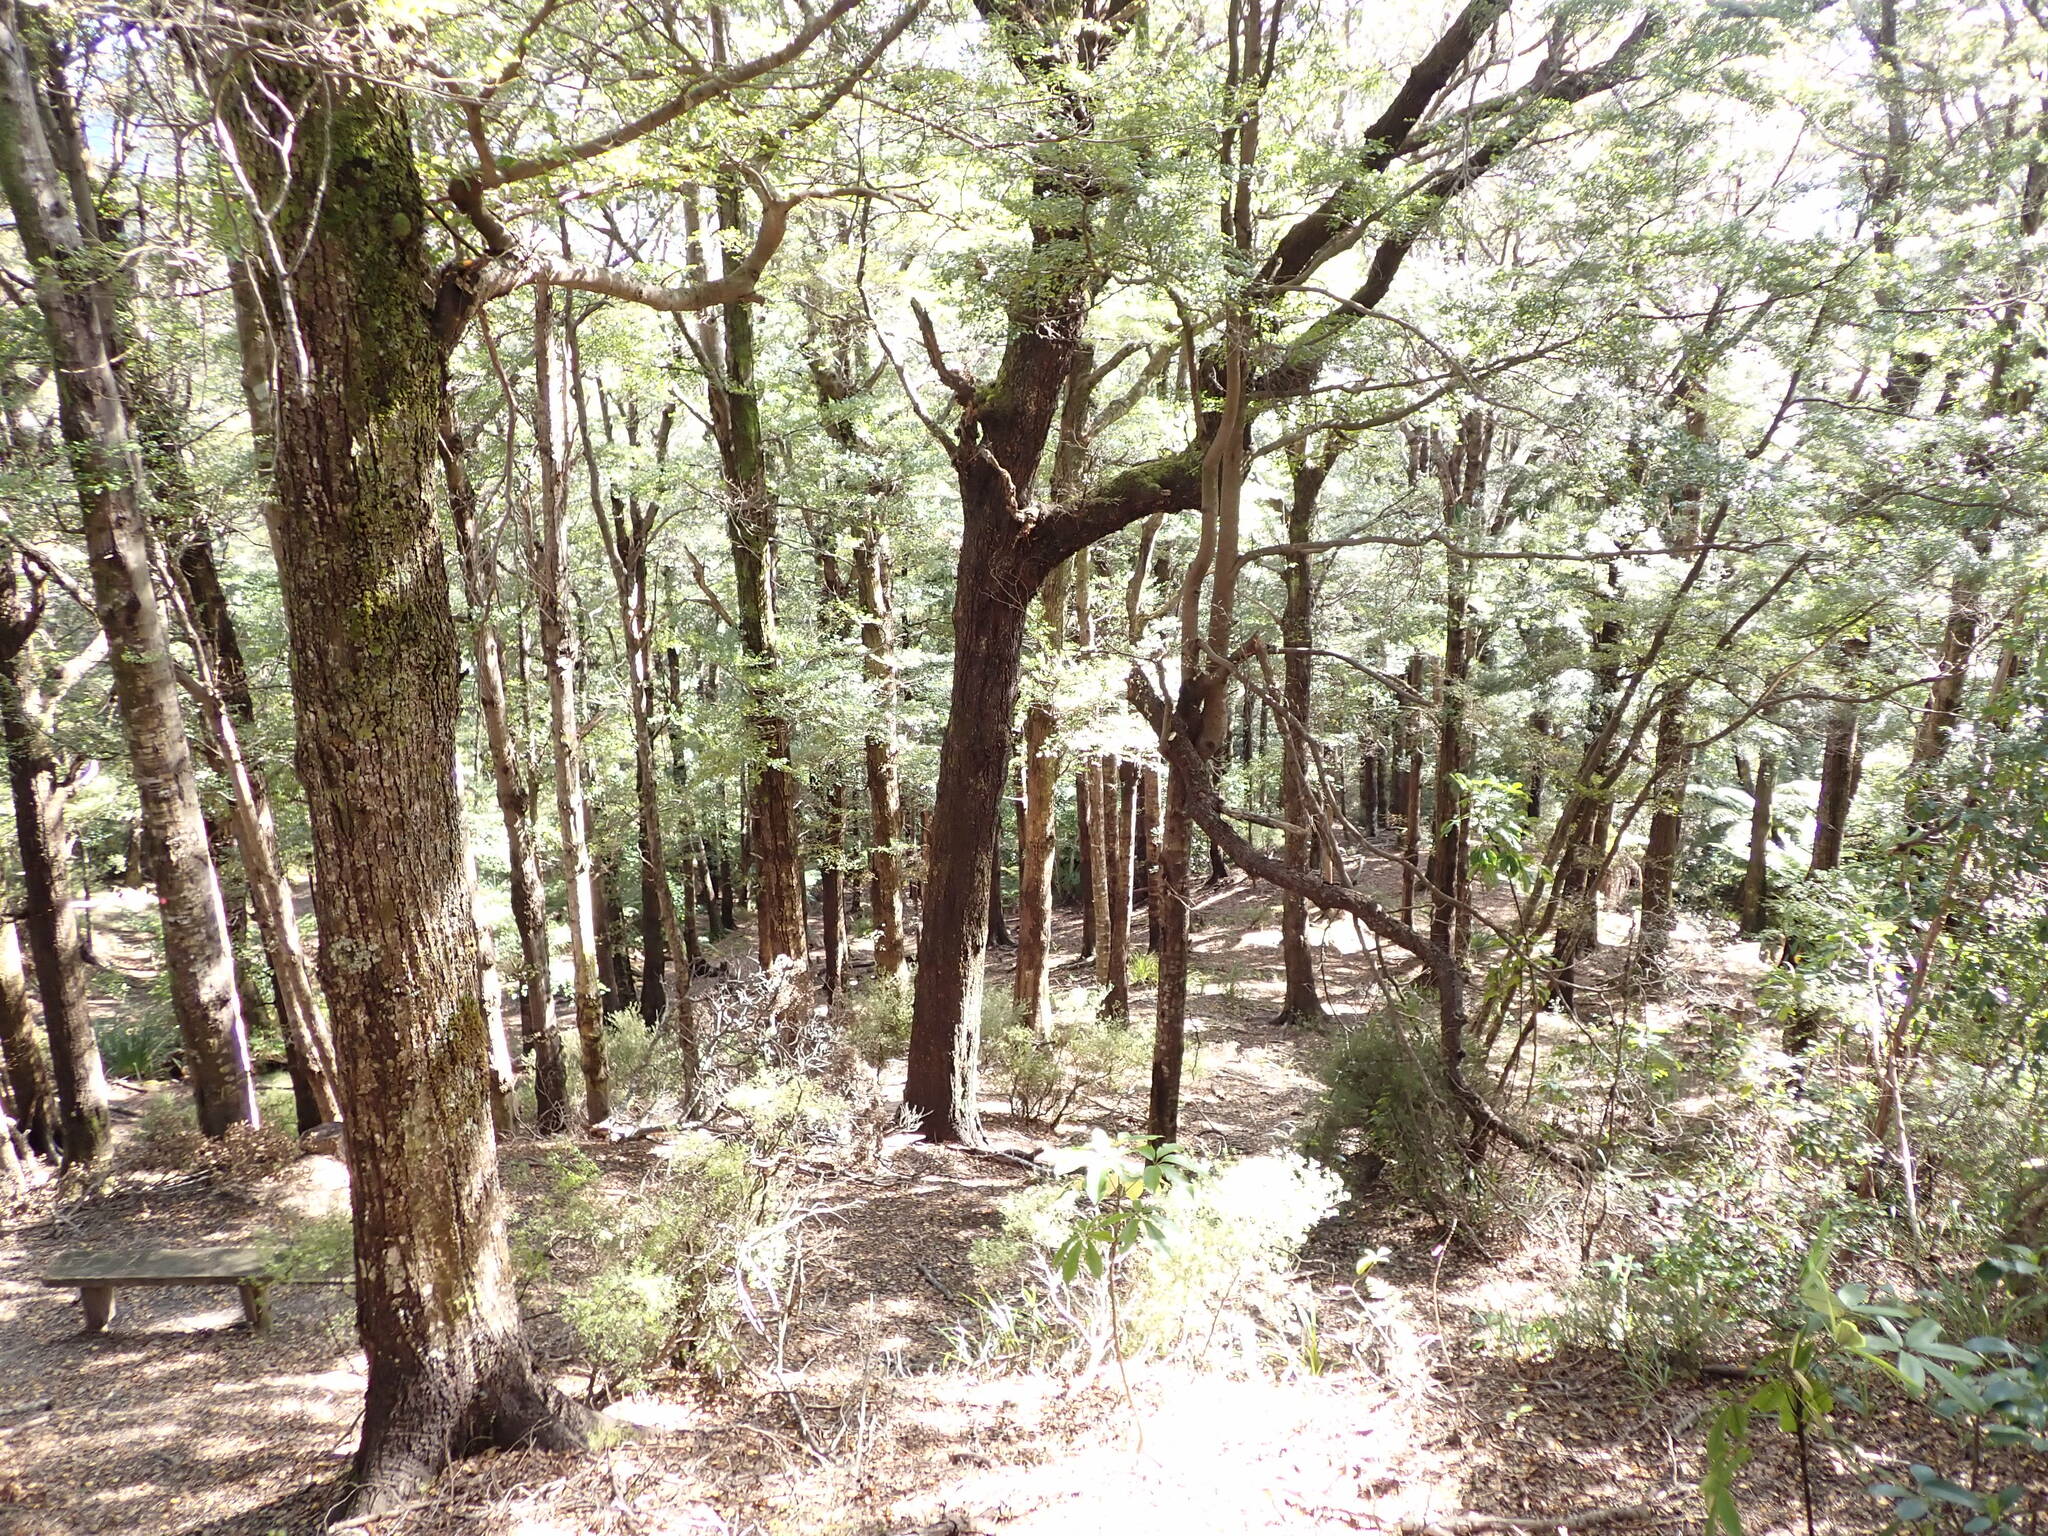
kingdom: Plantae
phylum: Tracheophyta
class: Magnoliopsida
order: Fagales
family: Nothofagaceae
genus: Nothofagus
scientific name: Nothofagus truncata
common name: Hard beech
